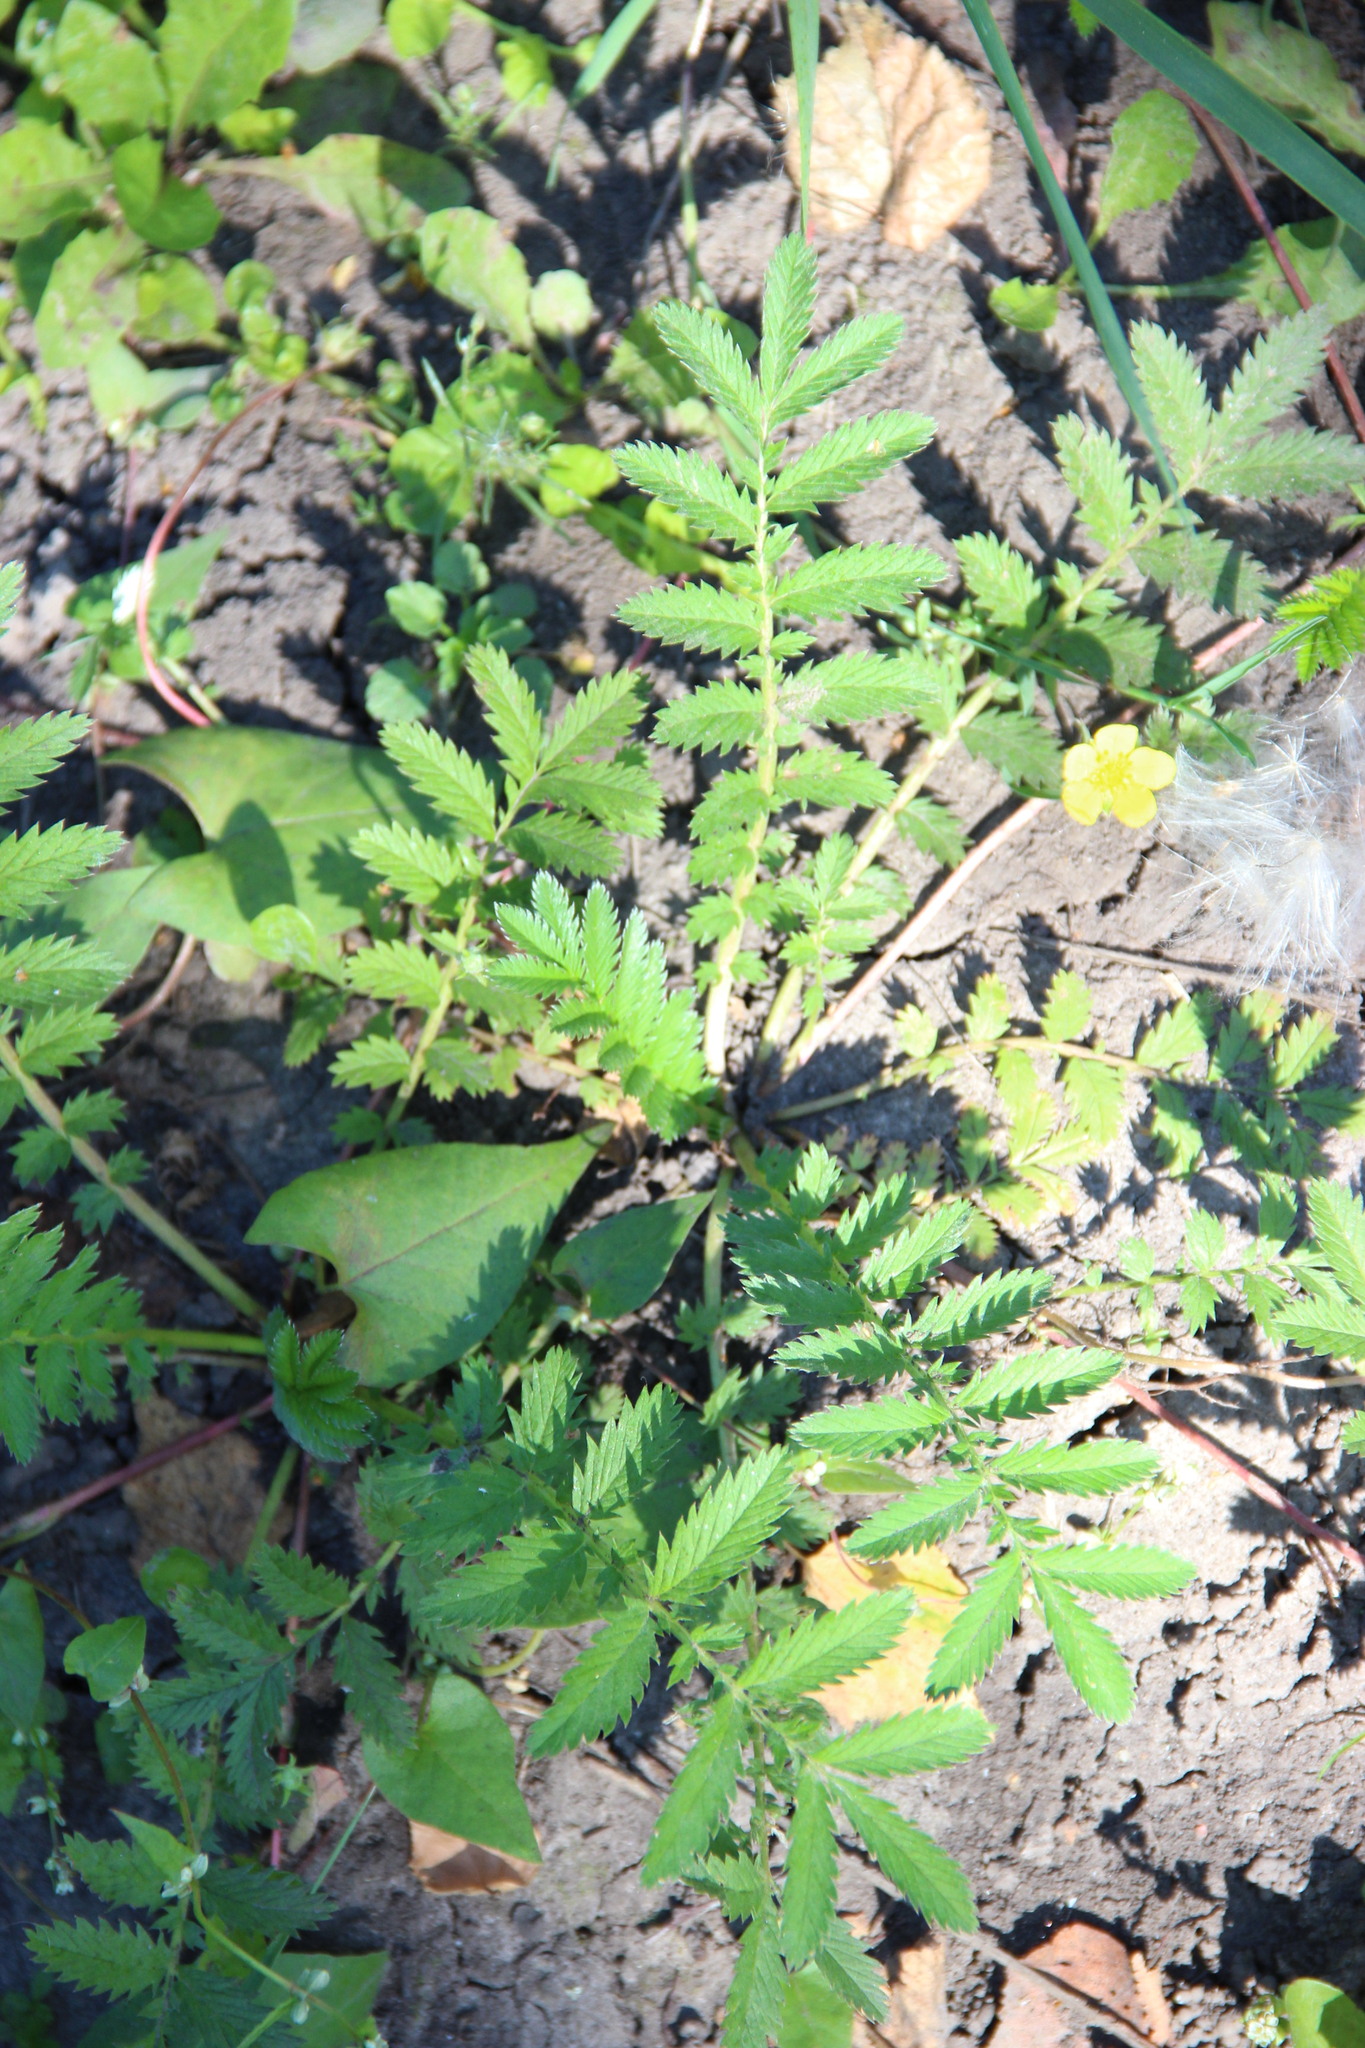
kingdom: Plantae
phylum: Tracheophyta
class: Magnoliopsida
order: Rosales
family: Rosaceae
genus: Argentina
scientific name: Argentina anserina
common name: Common silverweed
